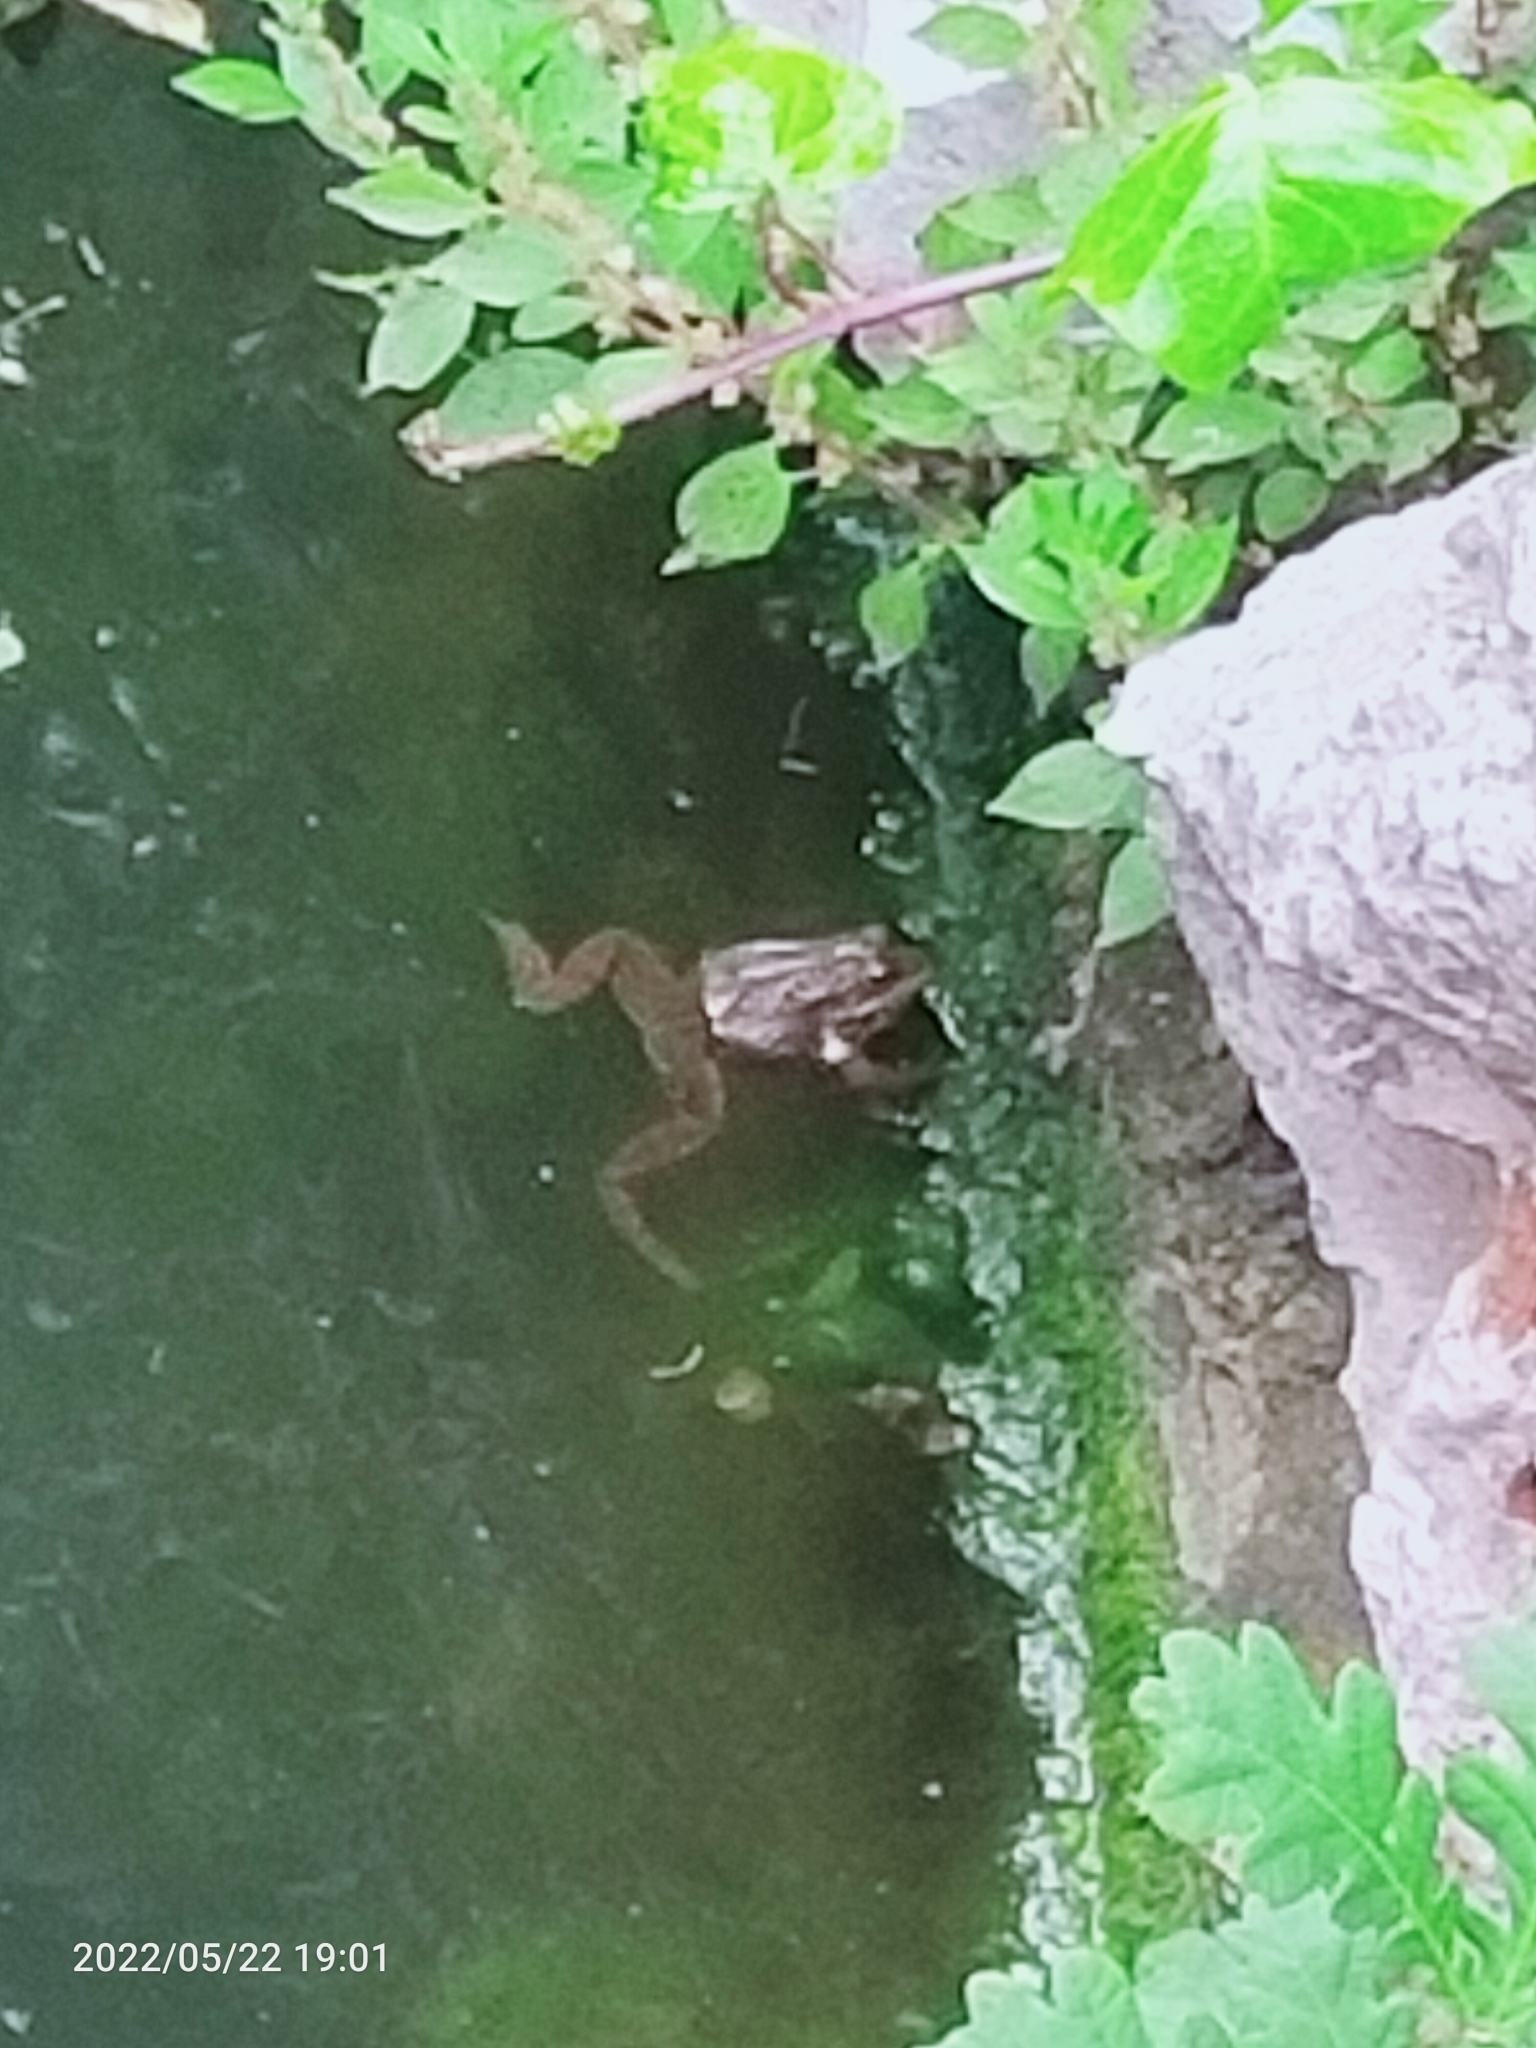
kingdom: Animalia
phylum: Chordata
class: Amphibia
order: Anura
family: Ranidae
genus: Pelophylax
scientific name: Pelophylax
